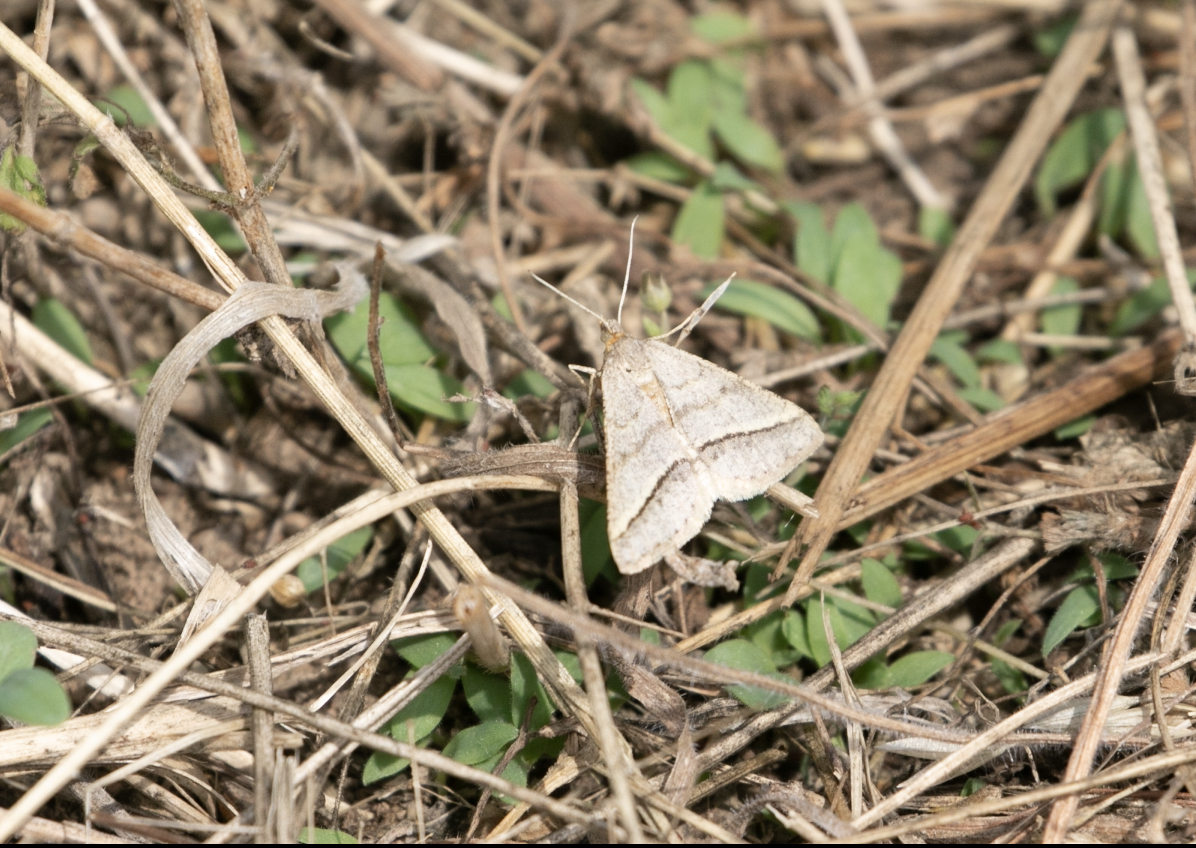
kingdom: Animalia
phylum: Arthropoda
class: Insecta
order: Lepidoptera
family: Geometridae
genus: Tephrina
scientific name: Tephrina arenacearia
